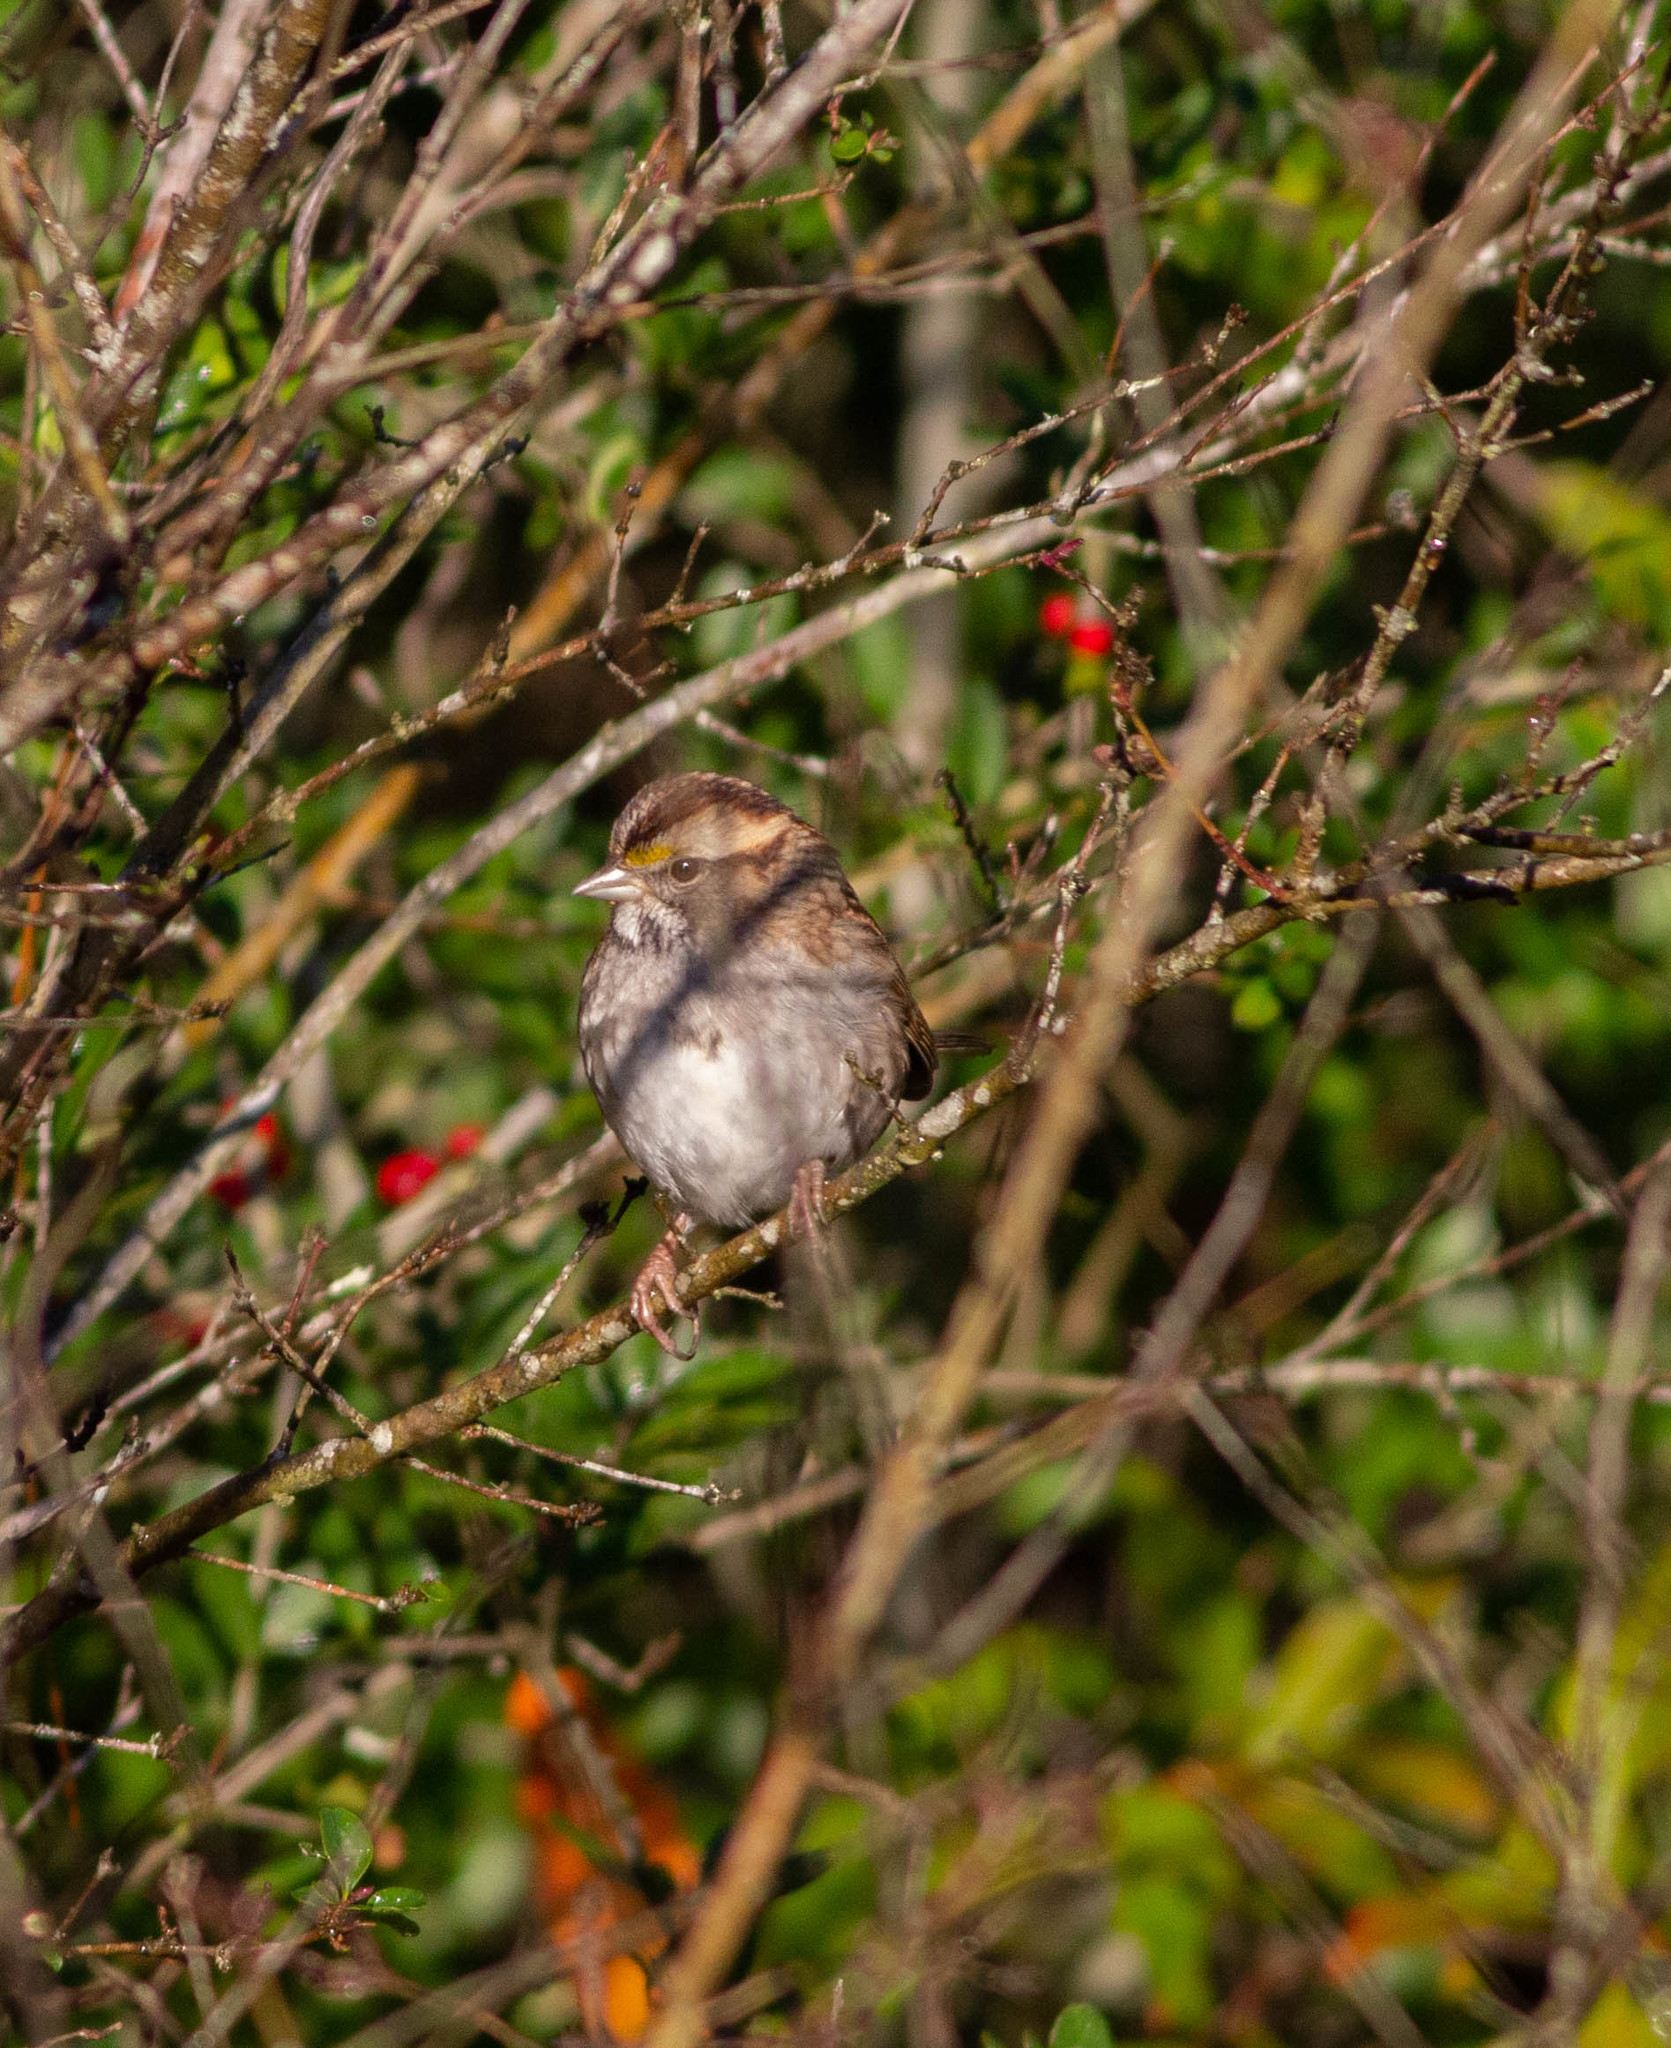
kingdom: Animalia
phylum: Chordata
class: Aves
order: Passeriformes
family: Passerellidae
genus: Zonotrichia
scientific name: Zonotrichia albicollis
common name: White-throated sparrow
